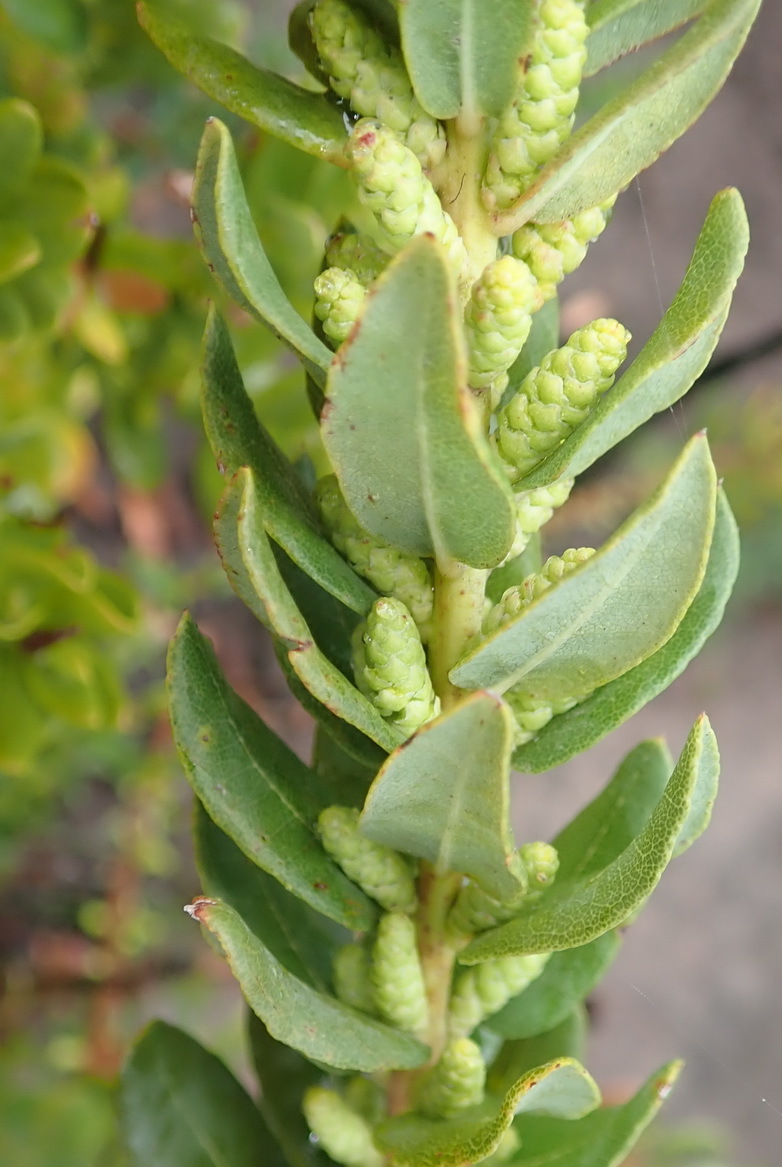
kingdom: Plantae
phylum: Tracheophyta
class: Magnoliopsida
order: Fagales
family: Myricaceae
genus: Morella
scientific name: Morella humilis
